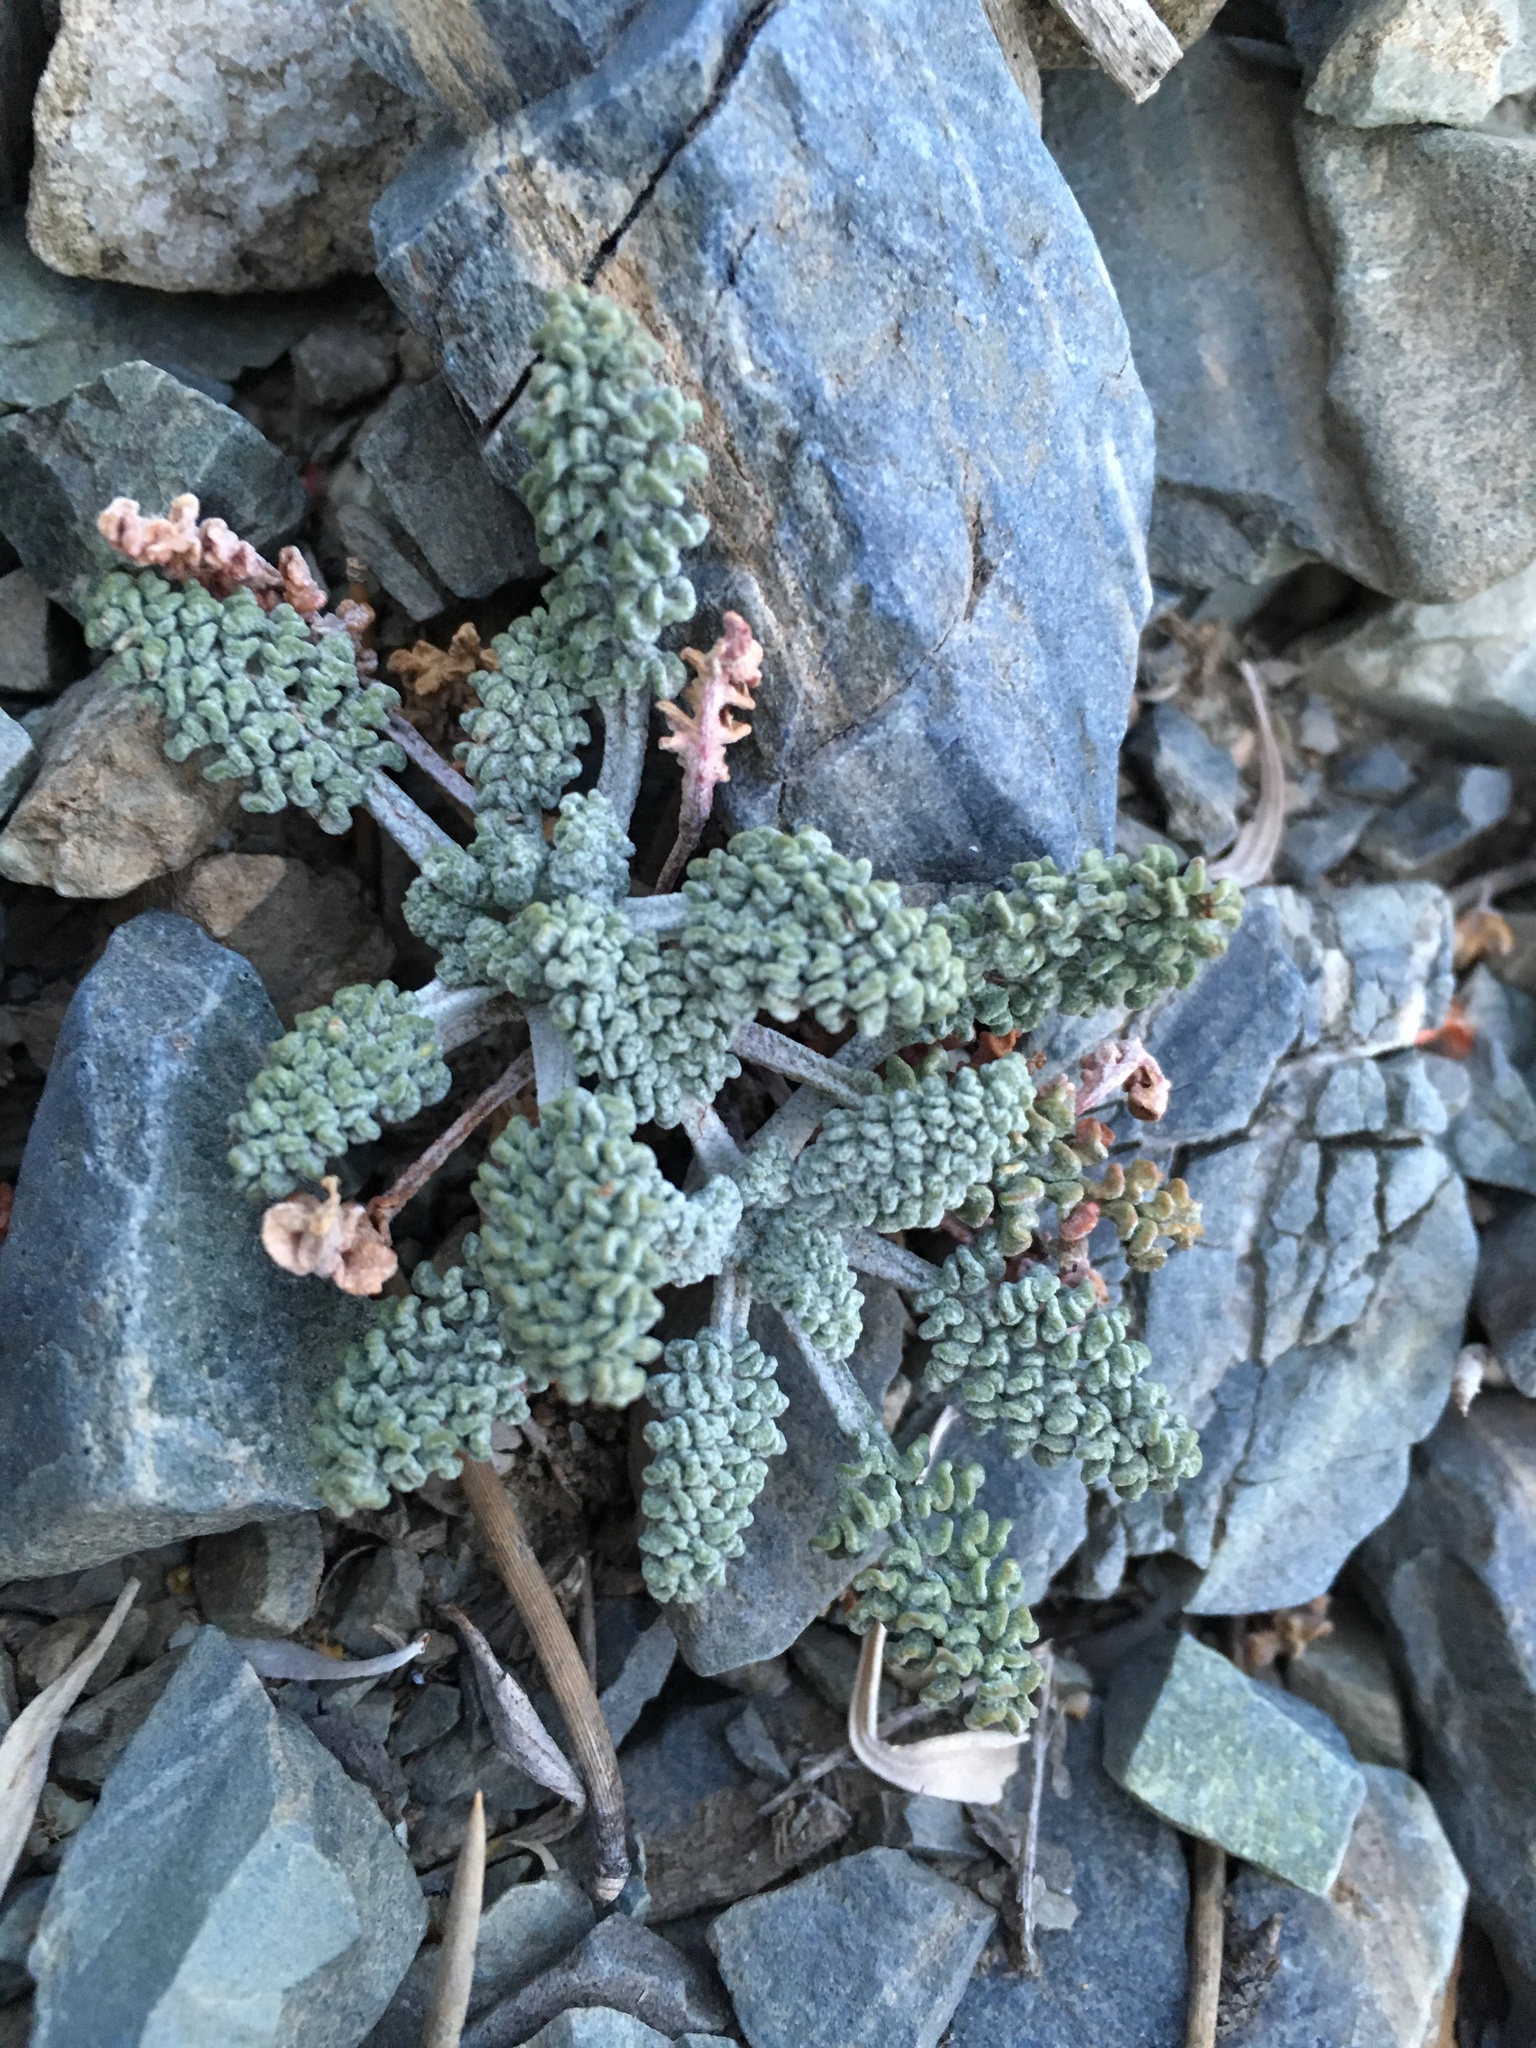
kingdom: Plantae
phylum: Tracheophyta
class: Magnoliopsida
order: Asterales
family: Asteraceae
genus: Chaenactis
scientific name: Chaenactis douglasii
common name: Hoary pincushion
